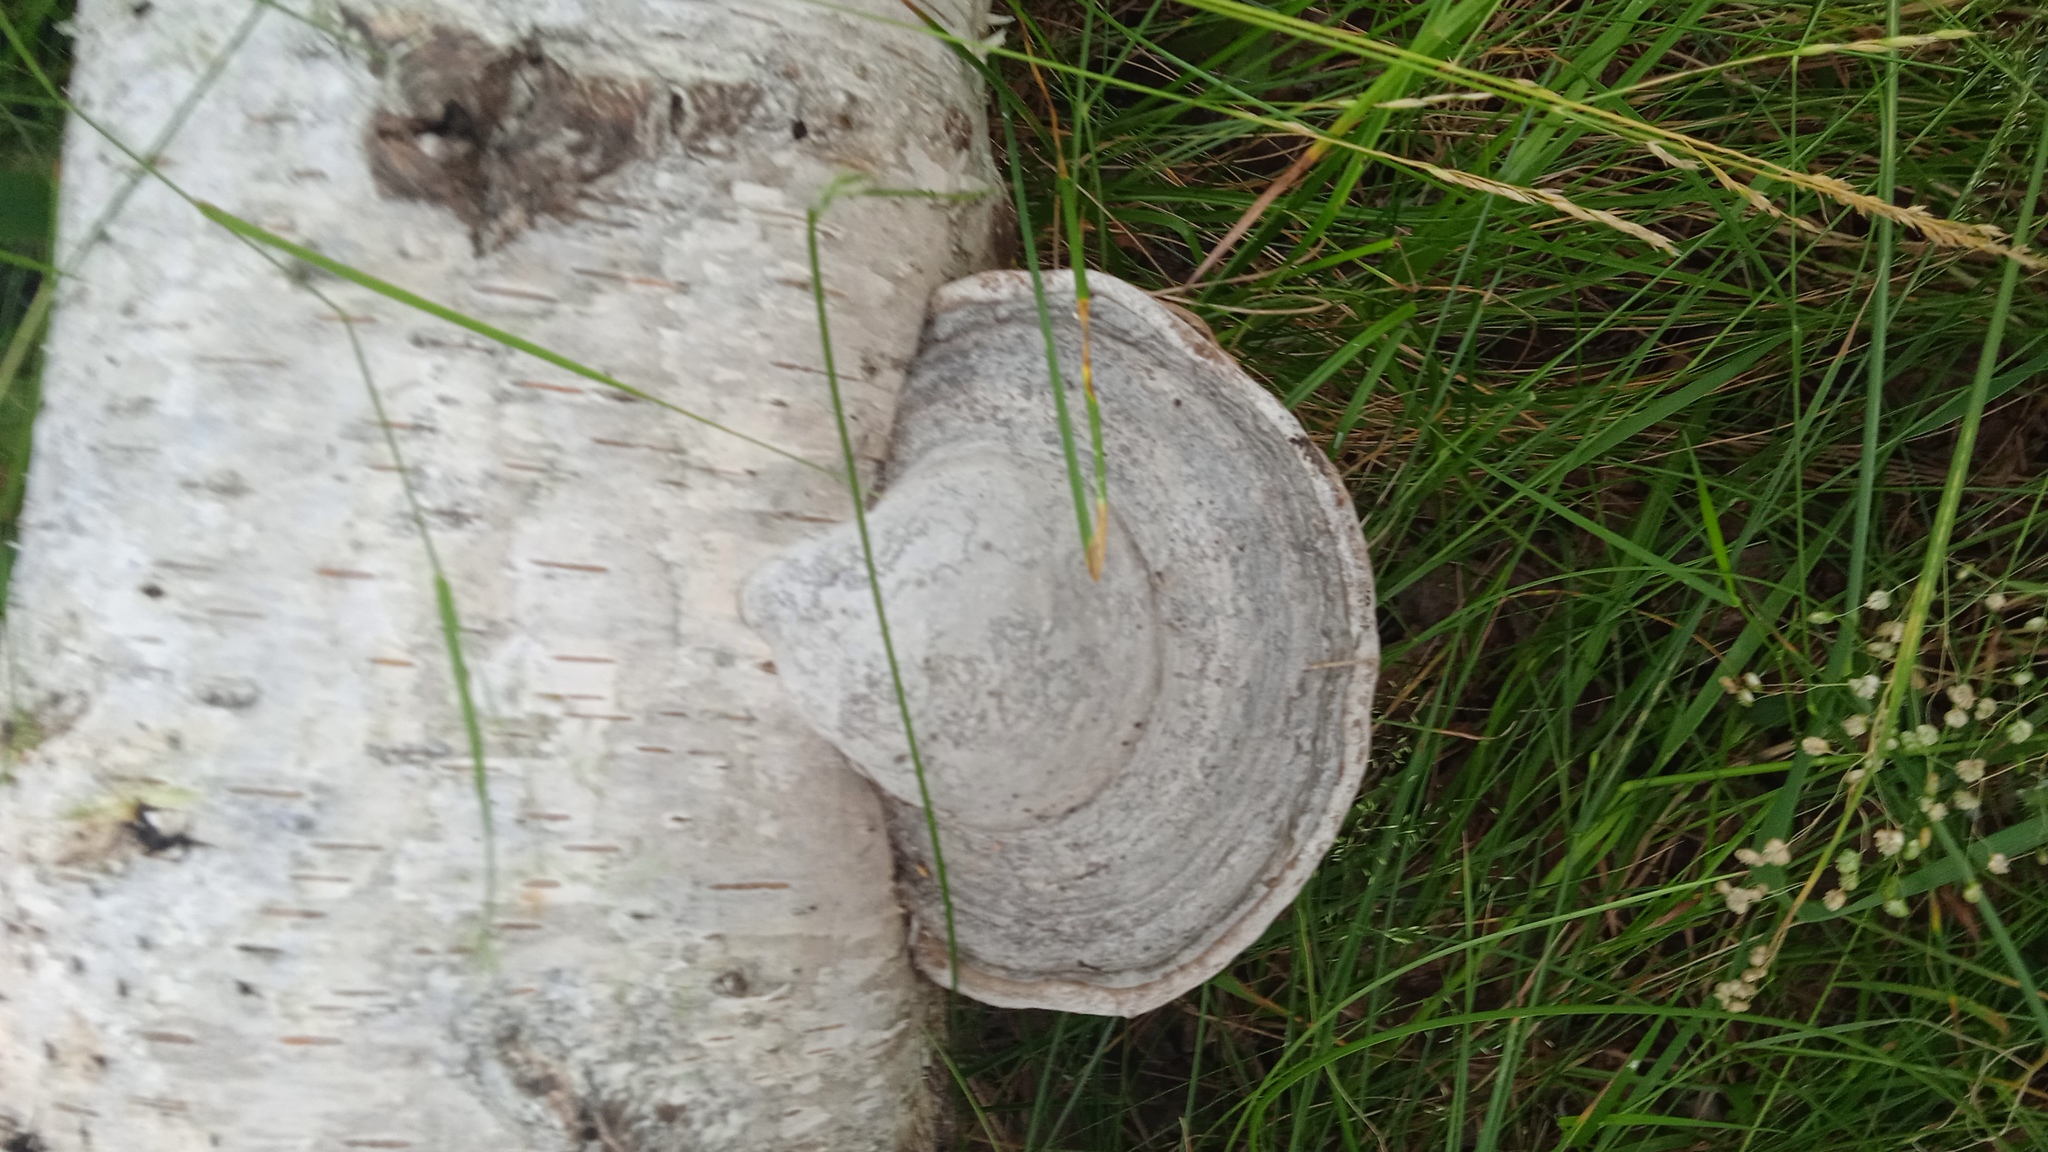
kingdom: Fungi
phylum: Basidiomycota
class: Agaricomycetes
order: Polyporales
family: Polyporaceae
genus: Fomes
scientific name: Fomes fomentarius
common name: Hoof fungus
